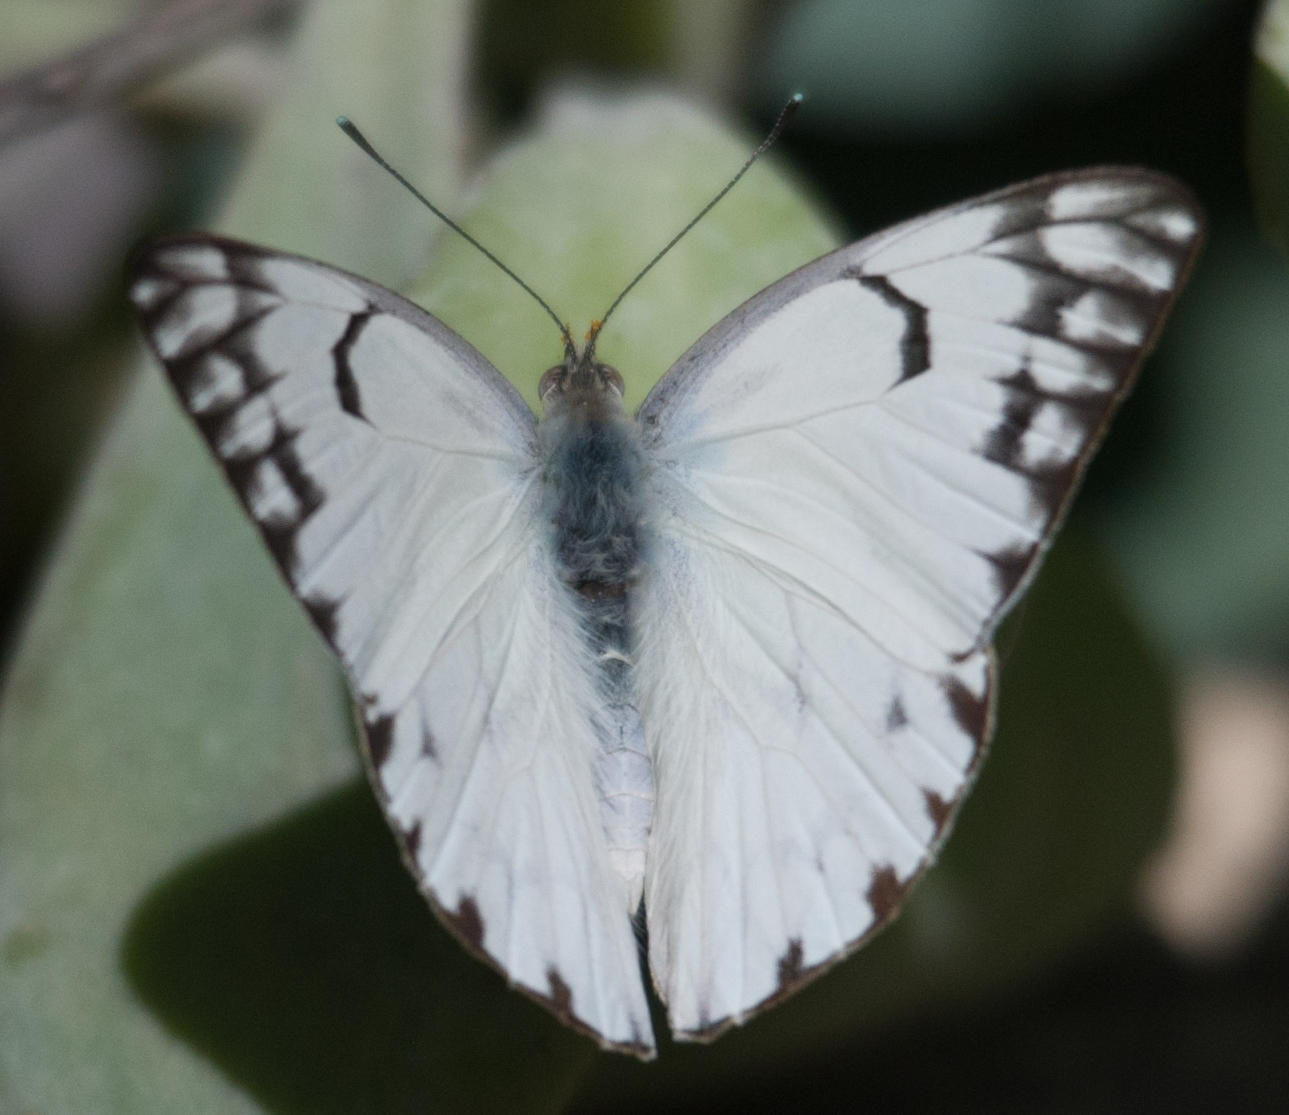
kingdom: Animalia
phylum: Arthropoda
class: Insecta
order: Lepidoptera
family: Pieridae
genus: Belenois
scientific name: Belenois gidica
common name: Pointed caper white
